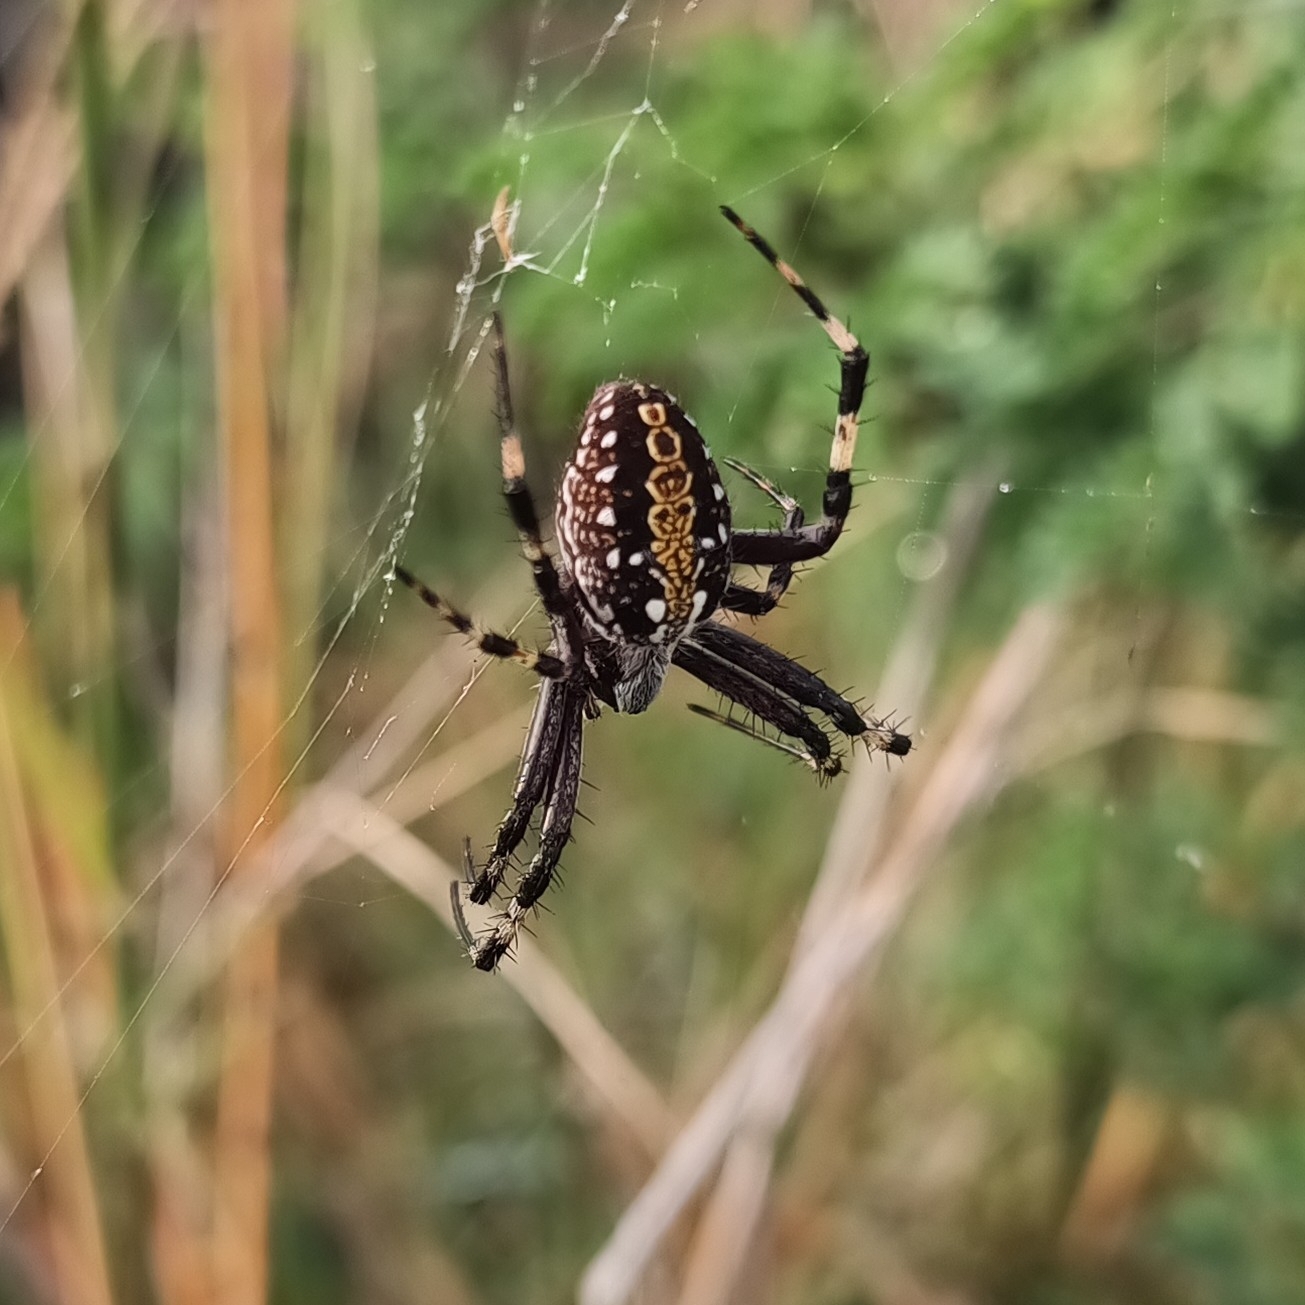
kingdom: Animalia
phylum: Arthropoda
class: Arachnida
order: Araneae
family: Araneidae
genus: Neoscona
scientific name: Neoscona oaxacensis
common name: Orb weavers
